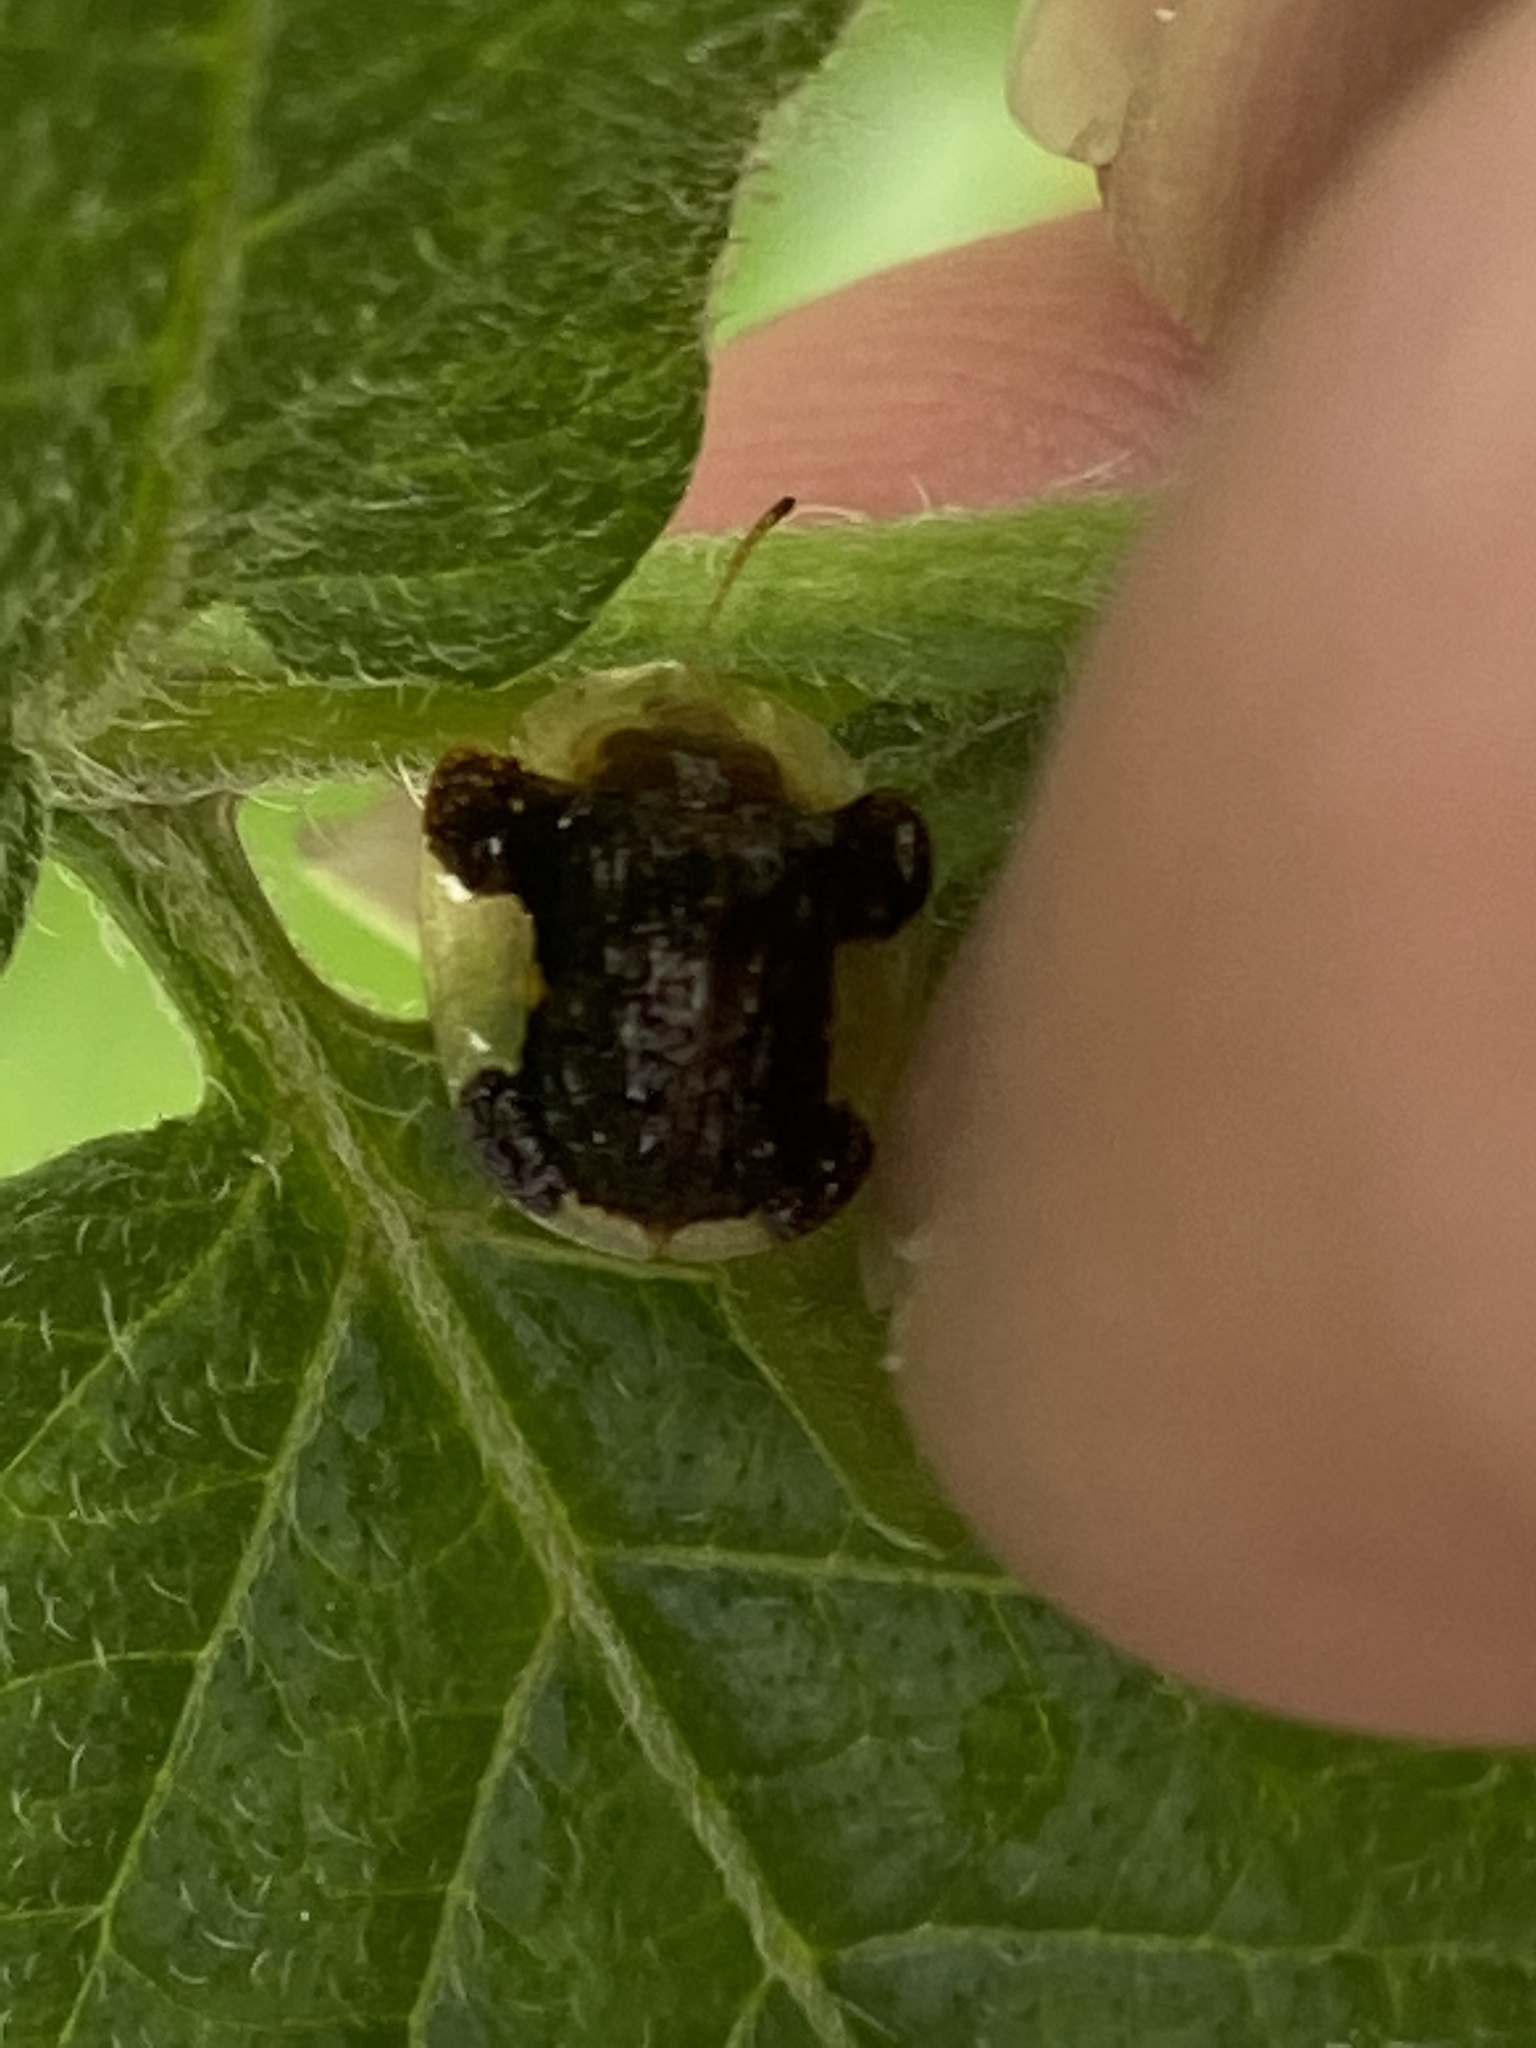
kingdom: Animalia
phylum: Arthropoda
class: Insecta
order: Coleoptera
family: Chrysomelidae
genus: Helocassis
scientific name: Helocassis clavata
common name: Clavate tortoise beetle
